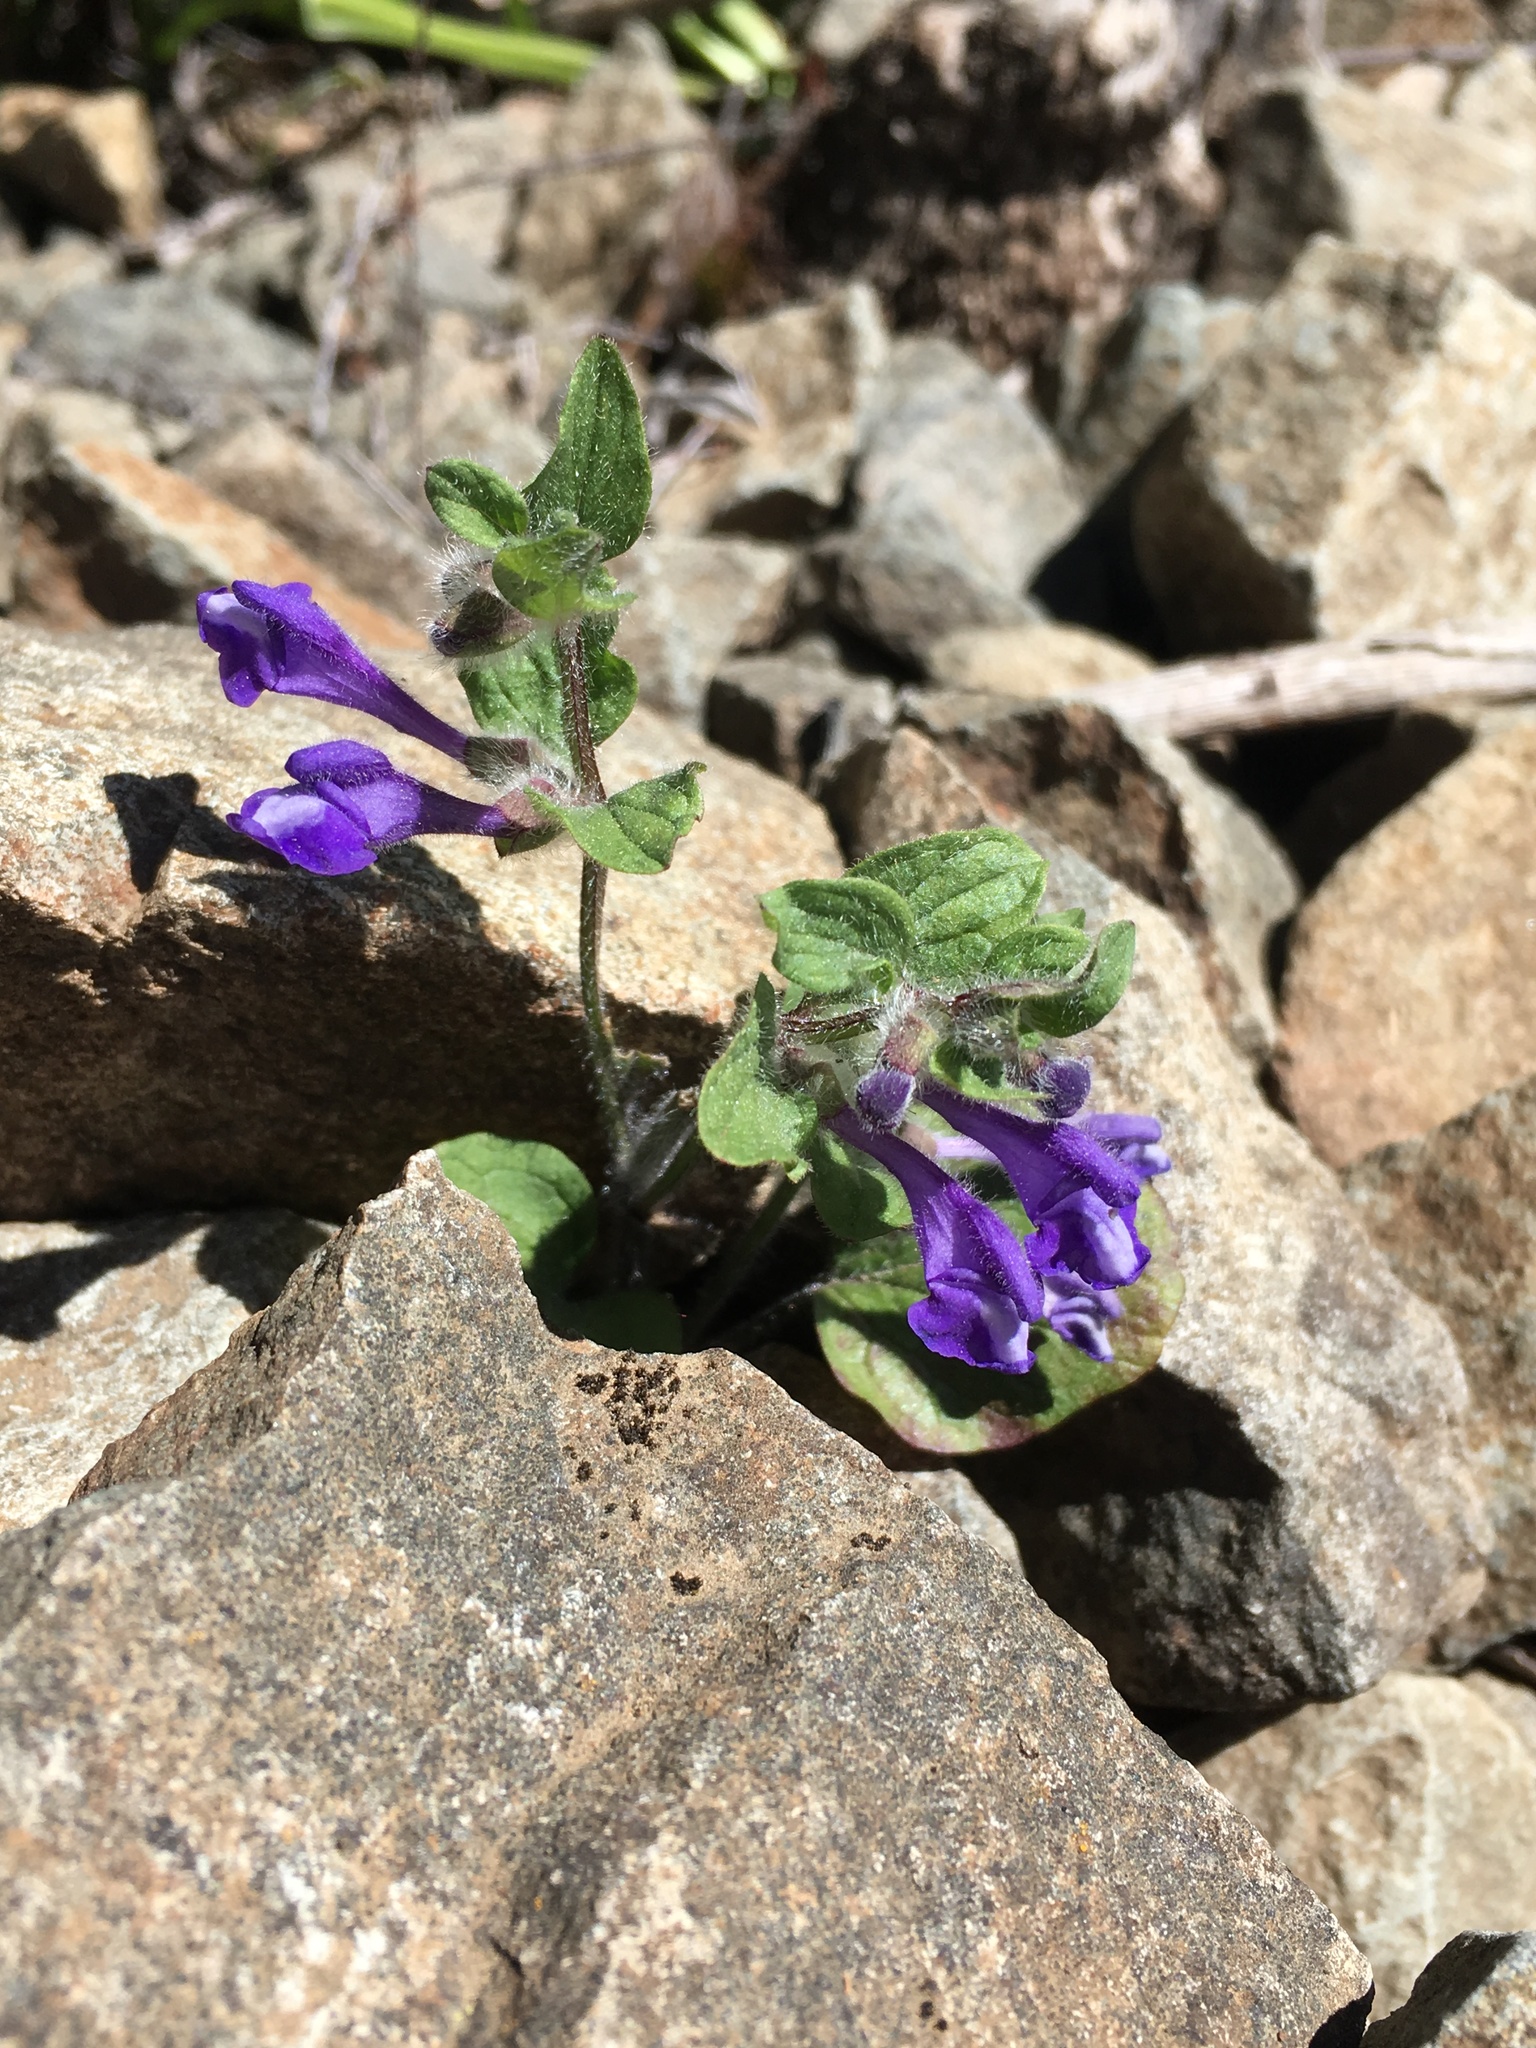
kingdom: Plantae
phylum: Tracheophyta
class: Magnoliopsida
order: Lamiales
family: Lamiaceae
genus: Scutellaria
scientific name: Scutellaria tuberosa
